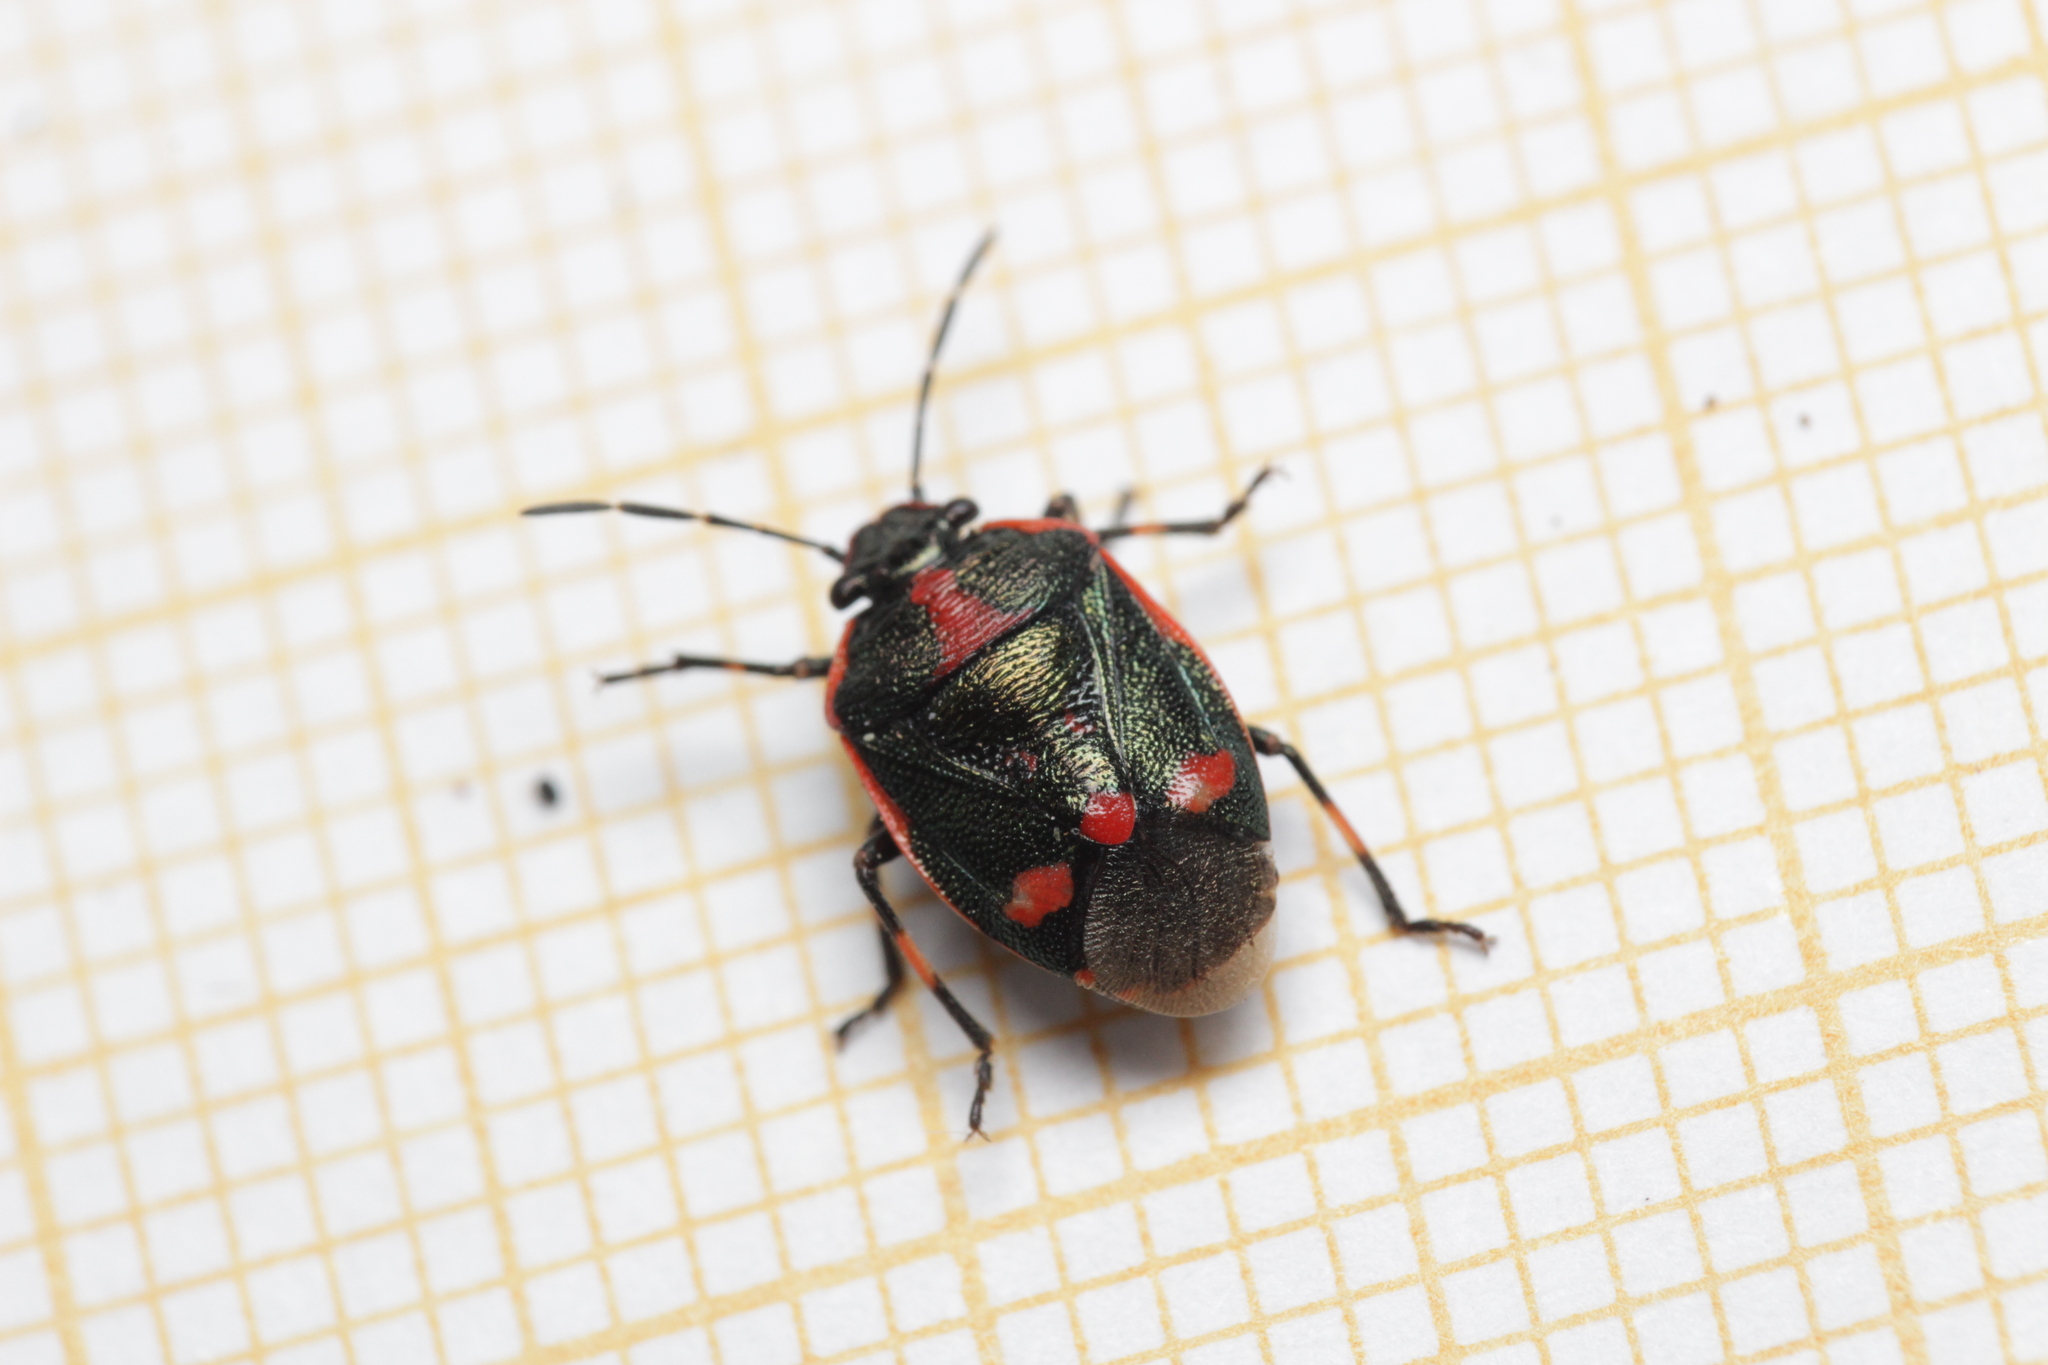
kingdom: Animalia
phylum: Arthropoda
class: Insecta
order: Hemiptera
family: Pentatomidae
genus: Eurydema
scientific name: Eurydema oleracea
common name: Cabbage bug
